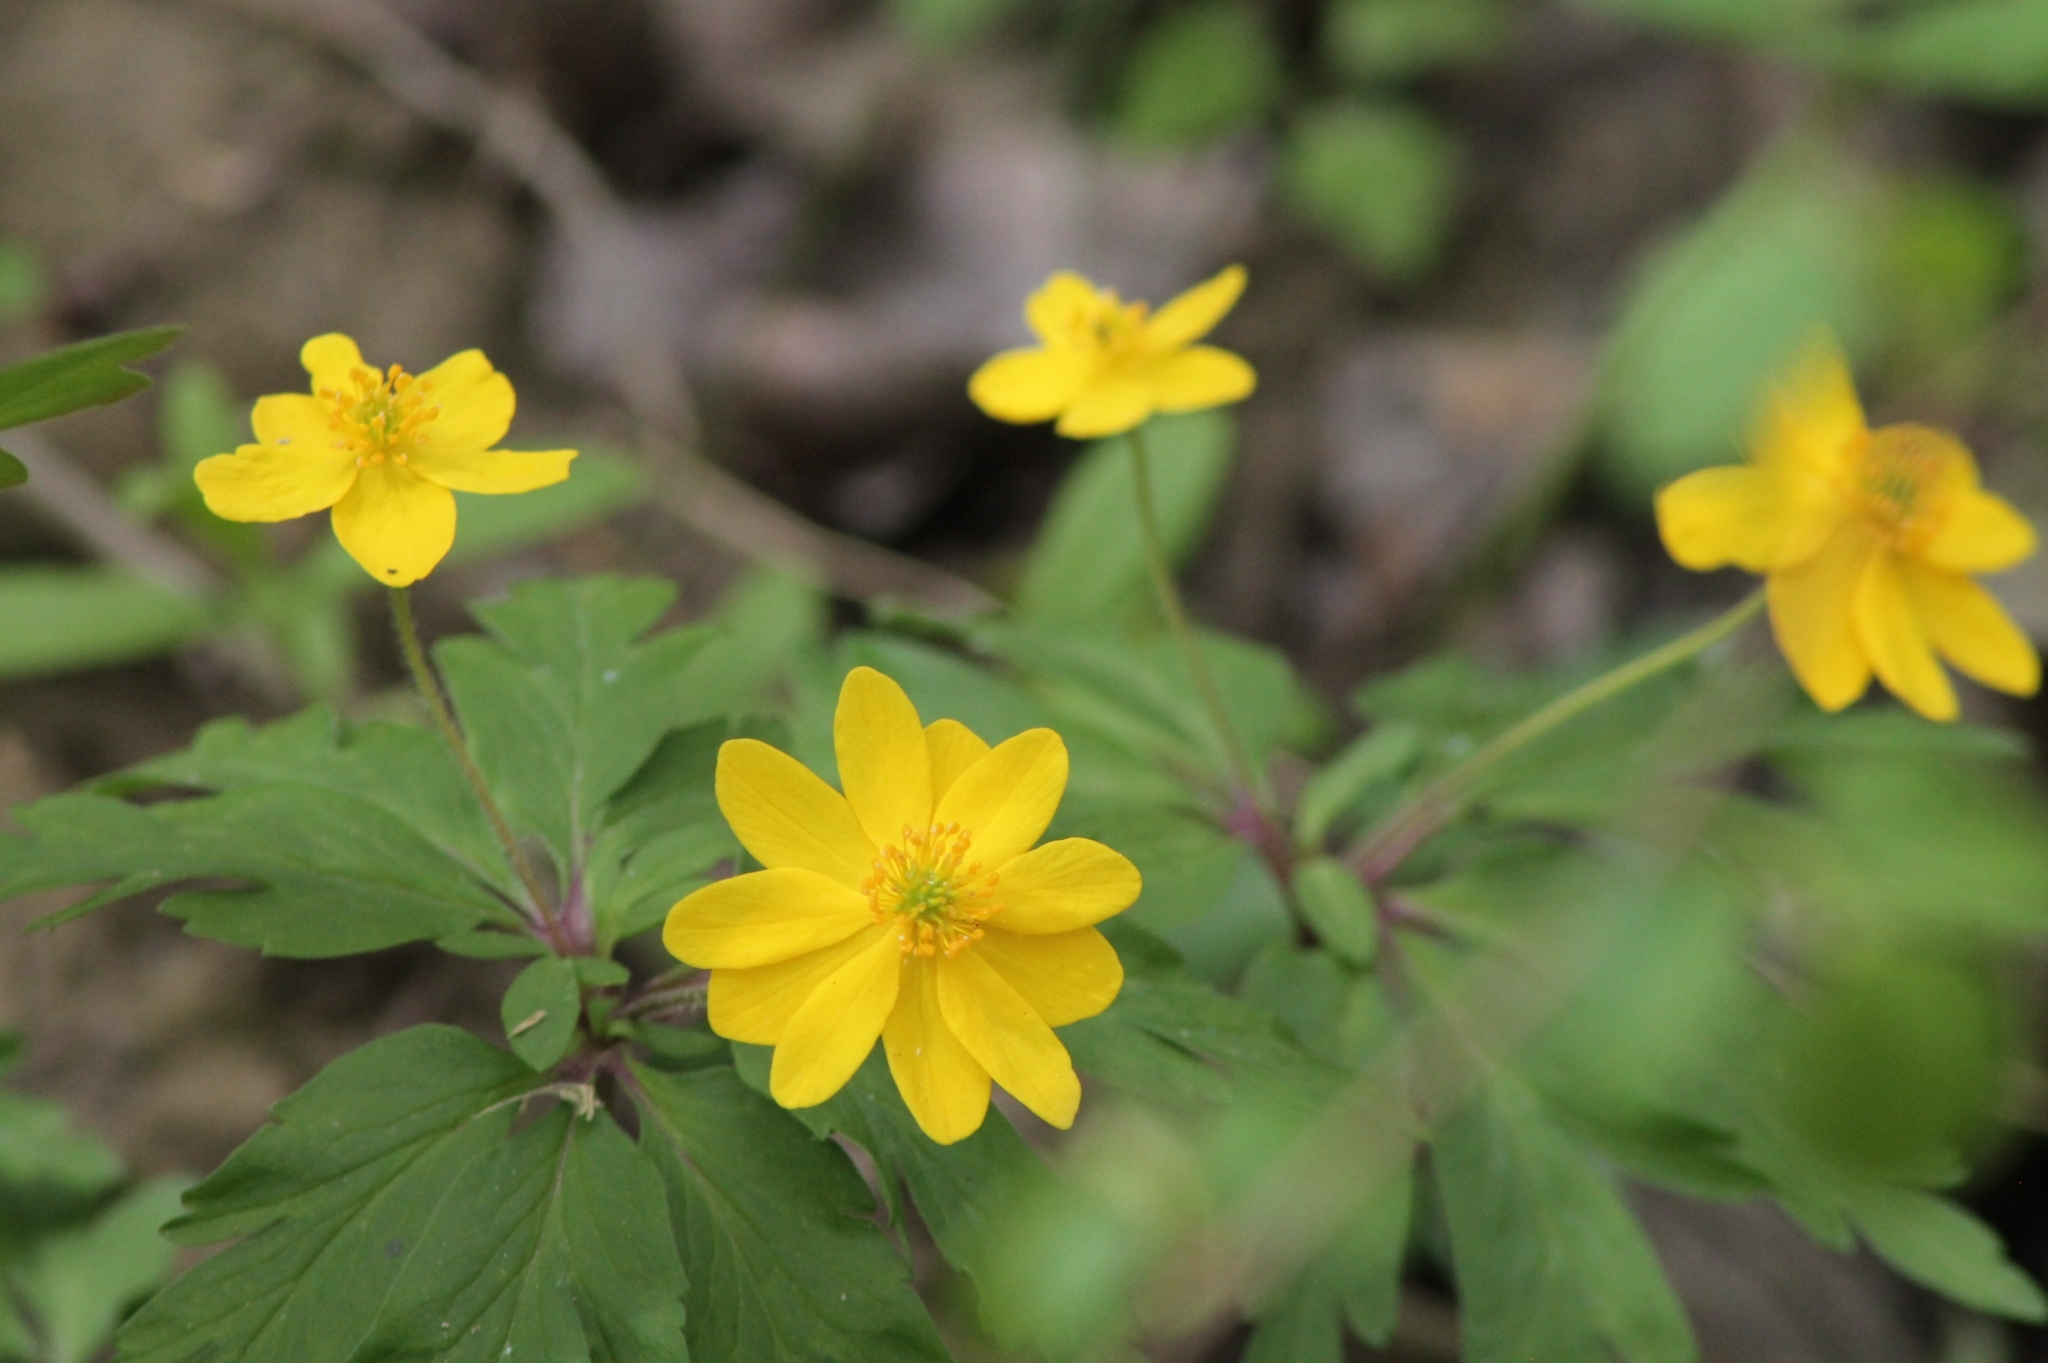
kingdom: Plantae
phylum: Tracheophyta
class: Magnoliopsida
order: Ranunculales
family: Ranunculaceae
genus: Anemone
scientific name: Anemone ranunculoides
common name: Yellow anemone
